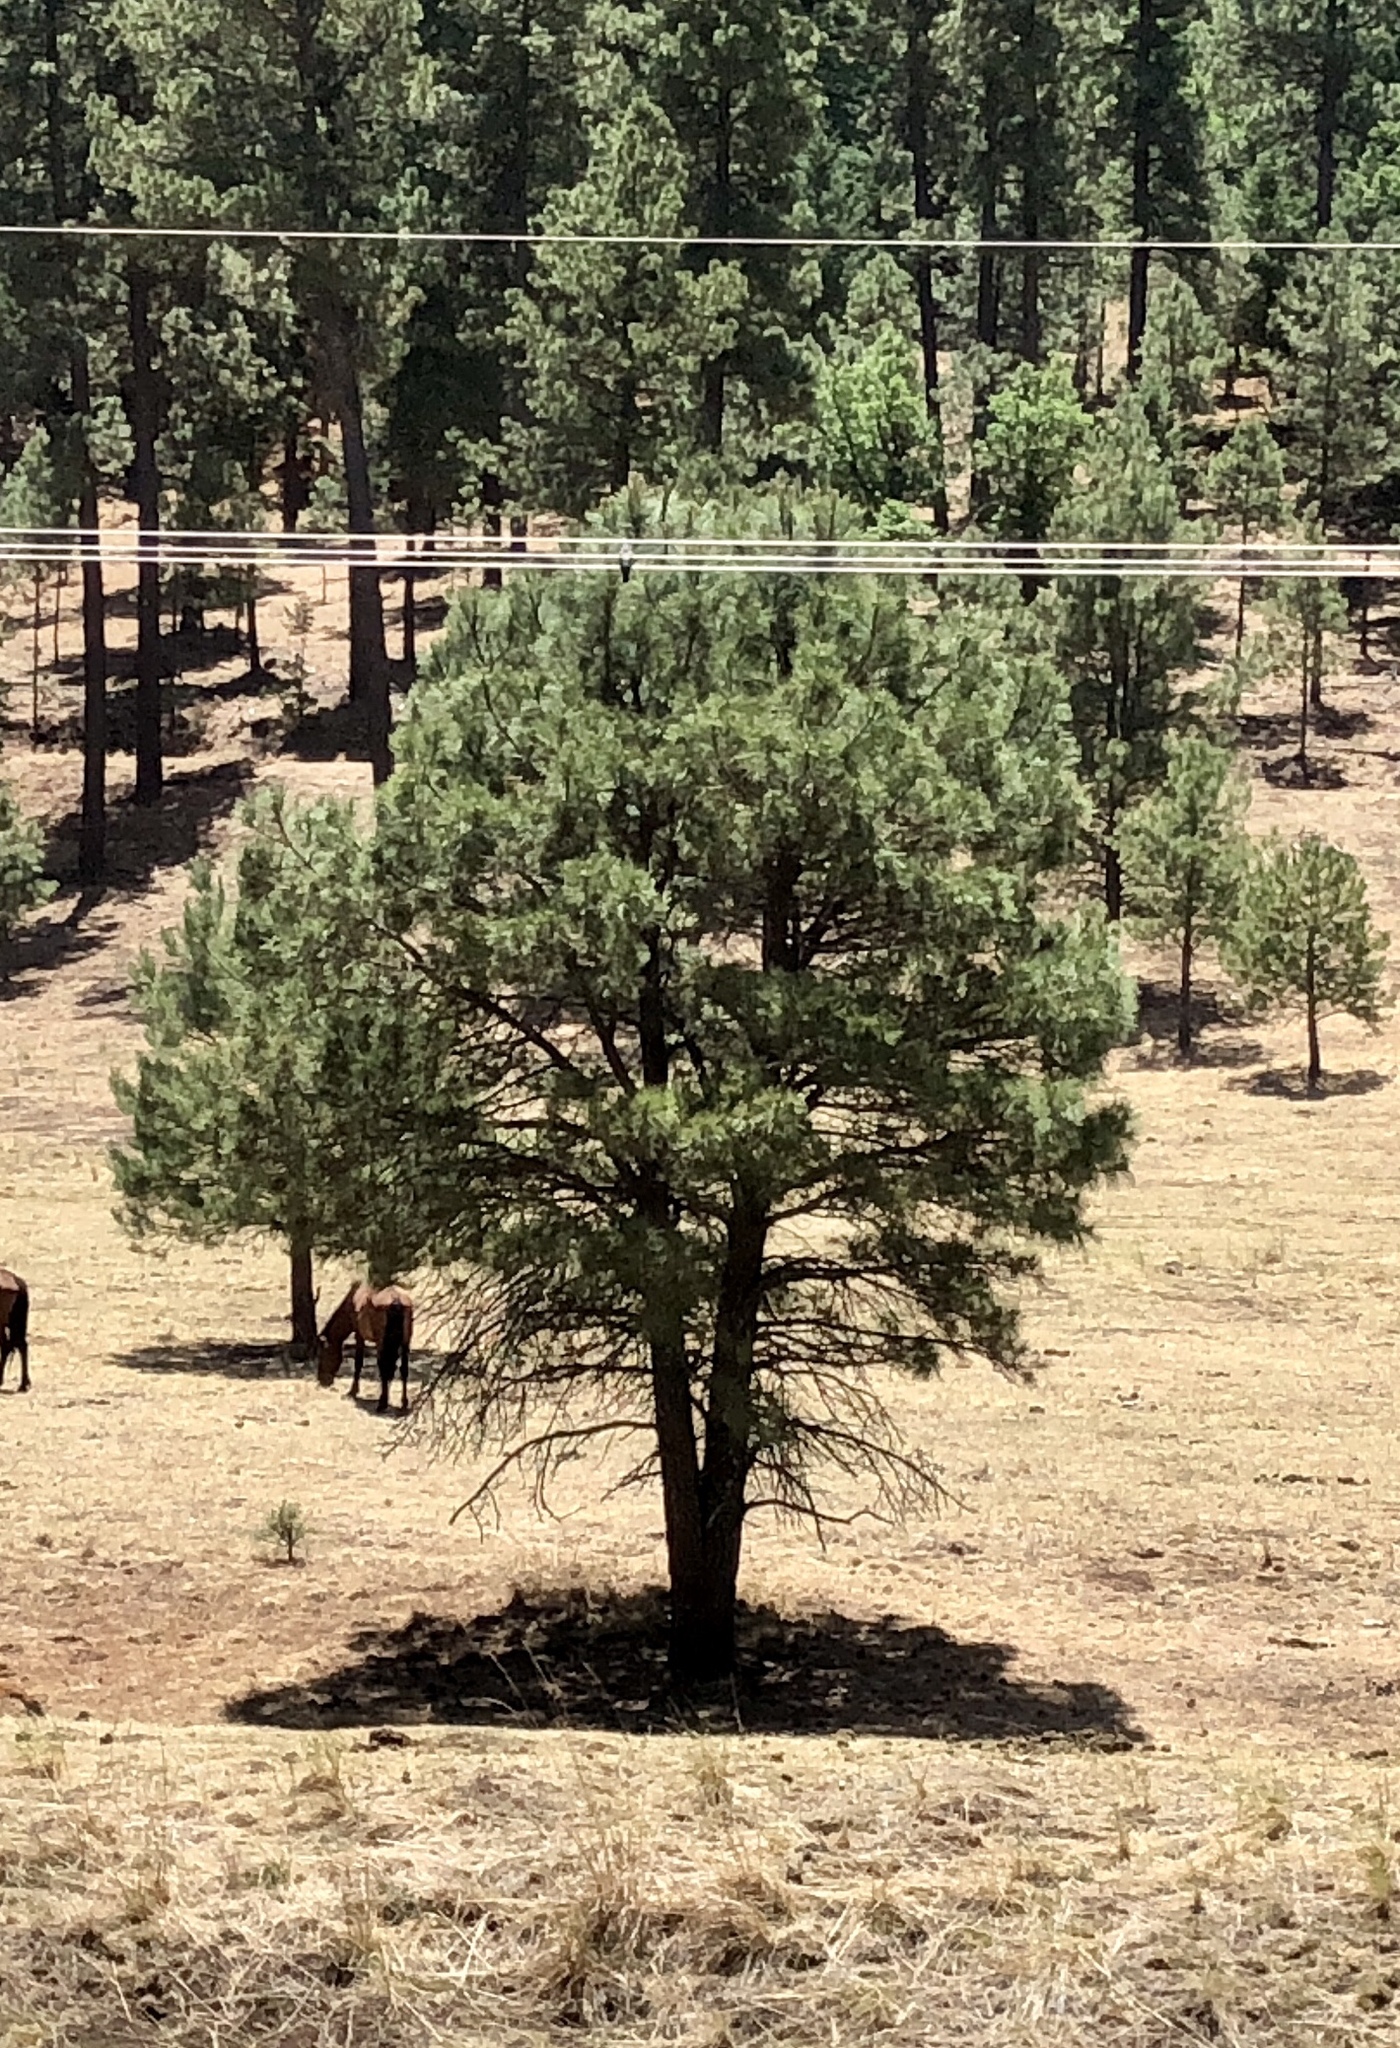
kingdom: Plantae
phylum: Tracheophyta
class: Pinopsida
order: Pinales
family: Pinaceae
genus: Pinus
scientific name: Pinus ponderosa
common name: Western yellow-pine
